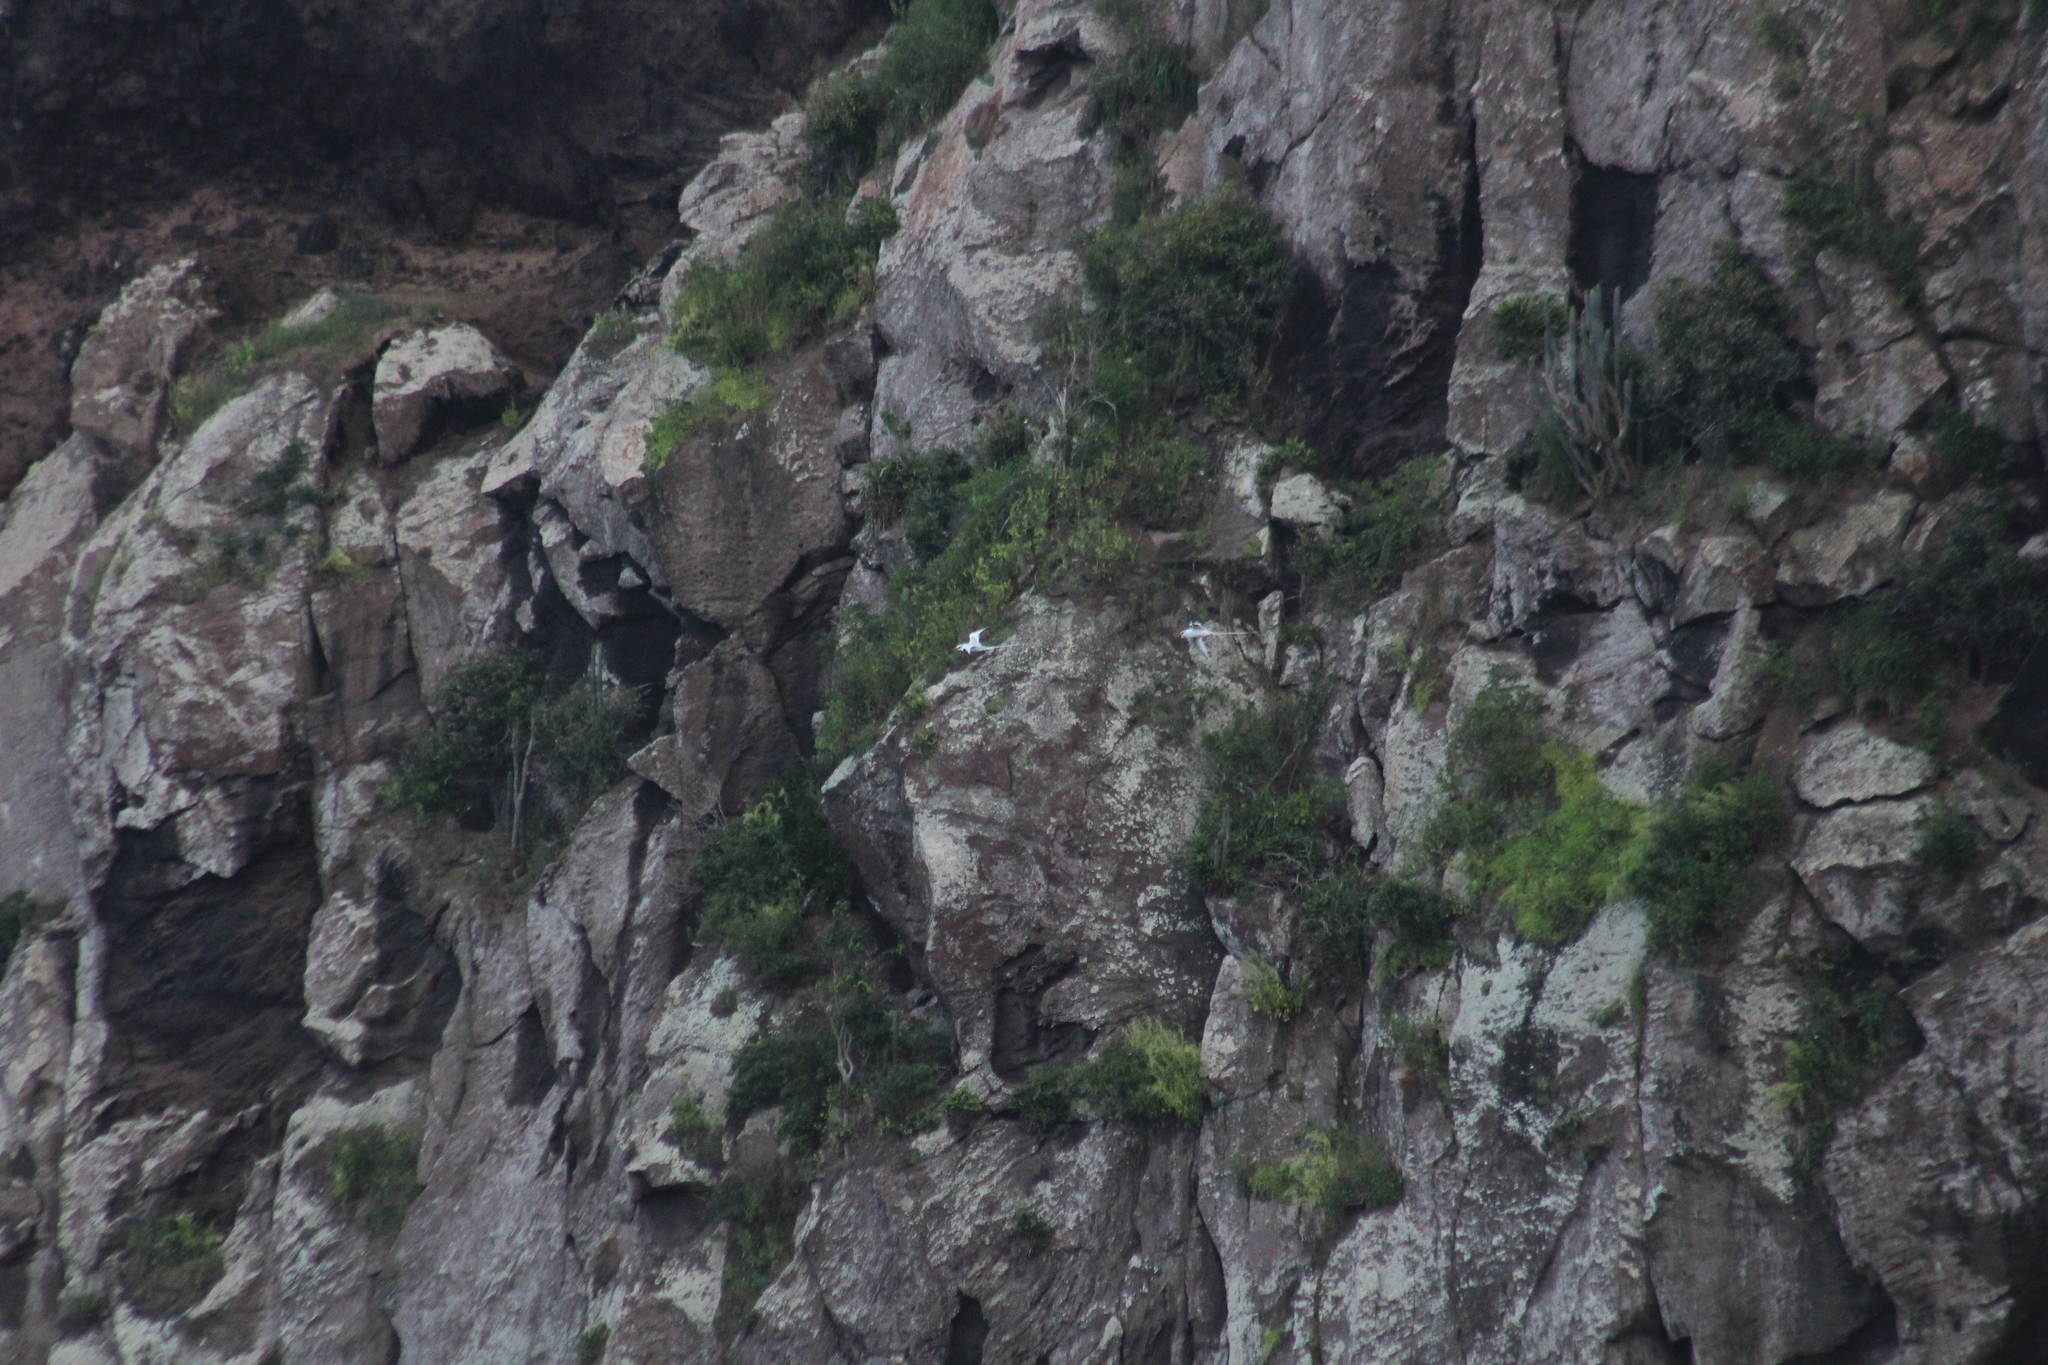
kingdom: Animalia
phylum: Chordata
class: Aves
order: Phaethontiformes
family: Phaethontidae
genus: Phaethon
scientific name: Phaethon aethereus
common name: Red-billed tropicbird
